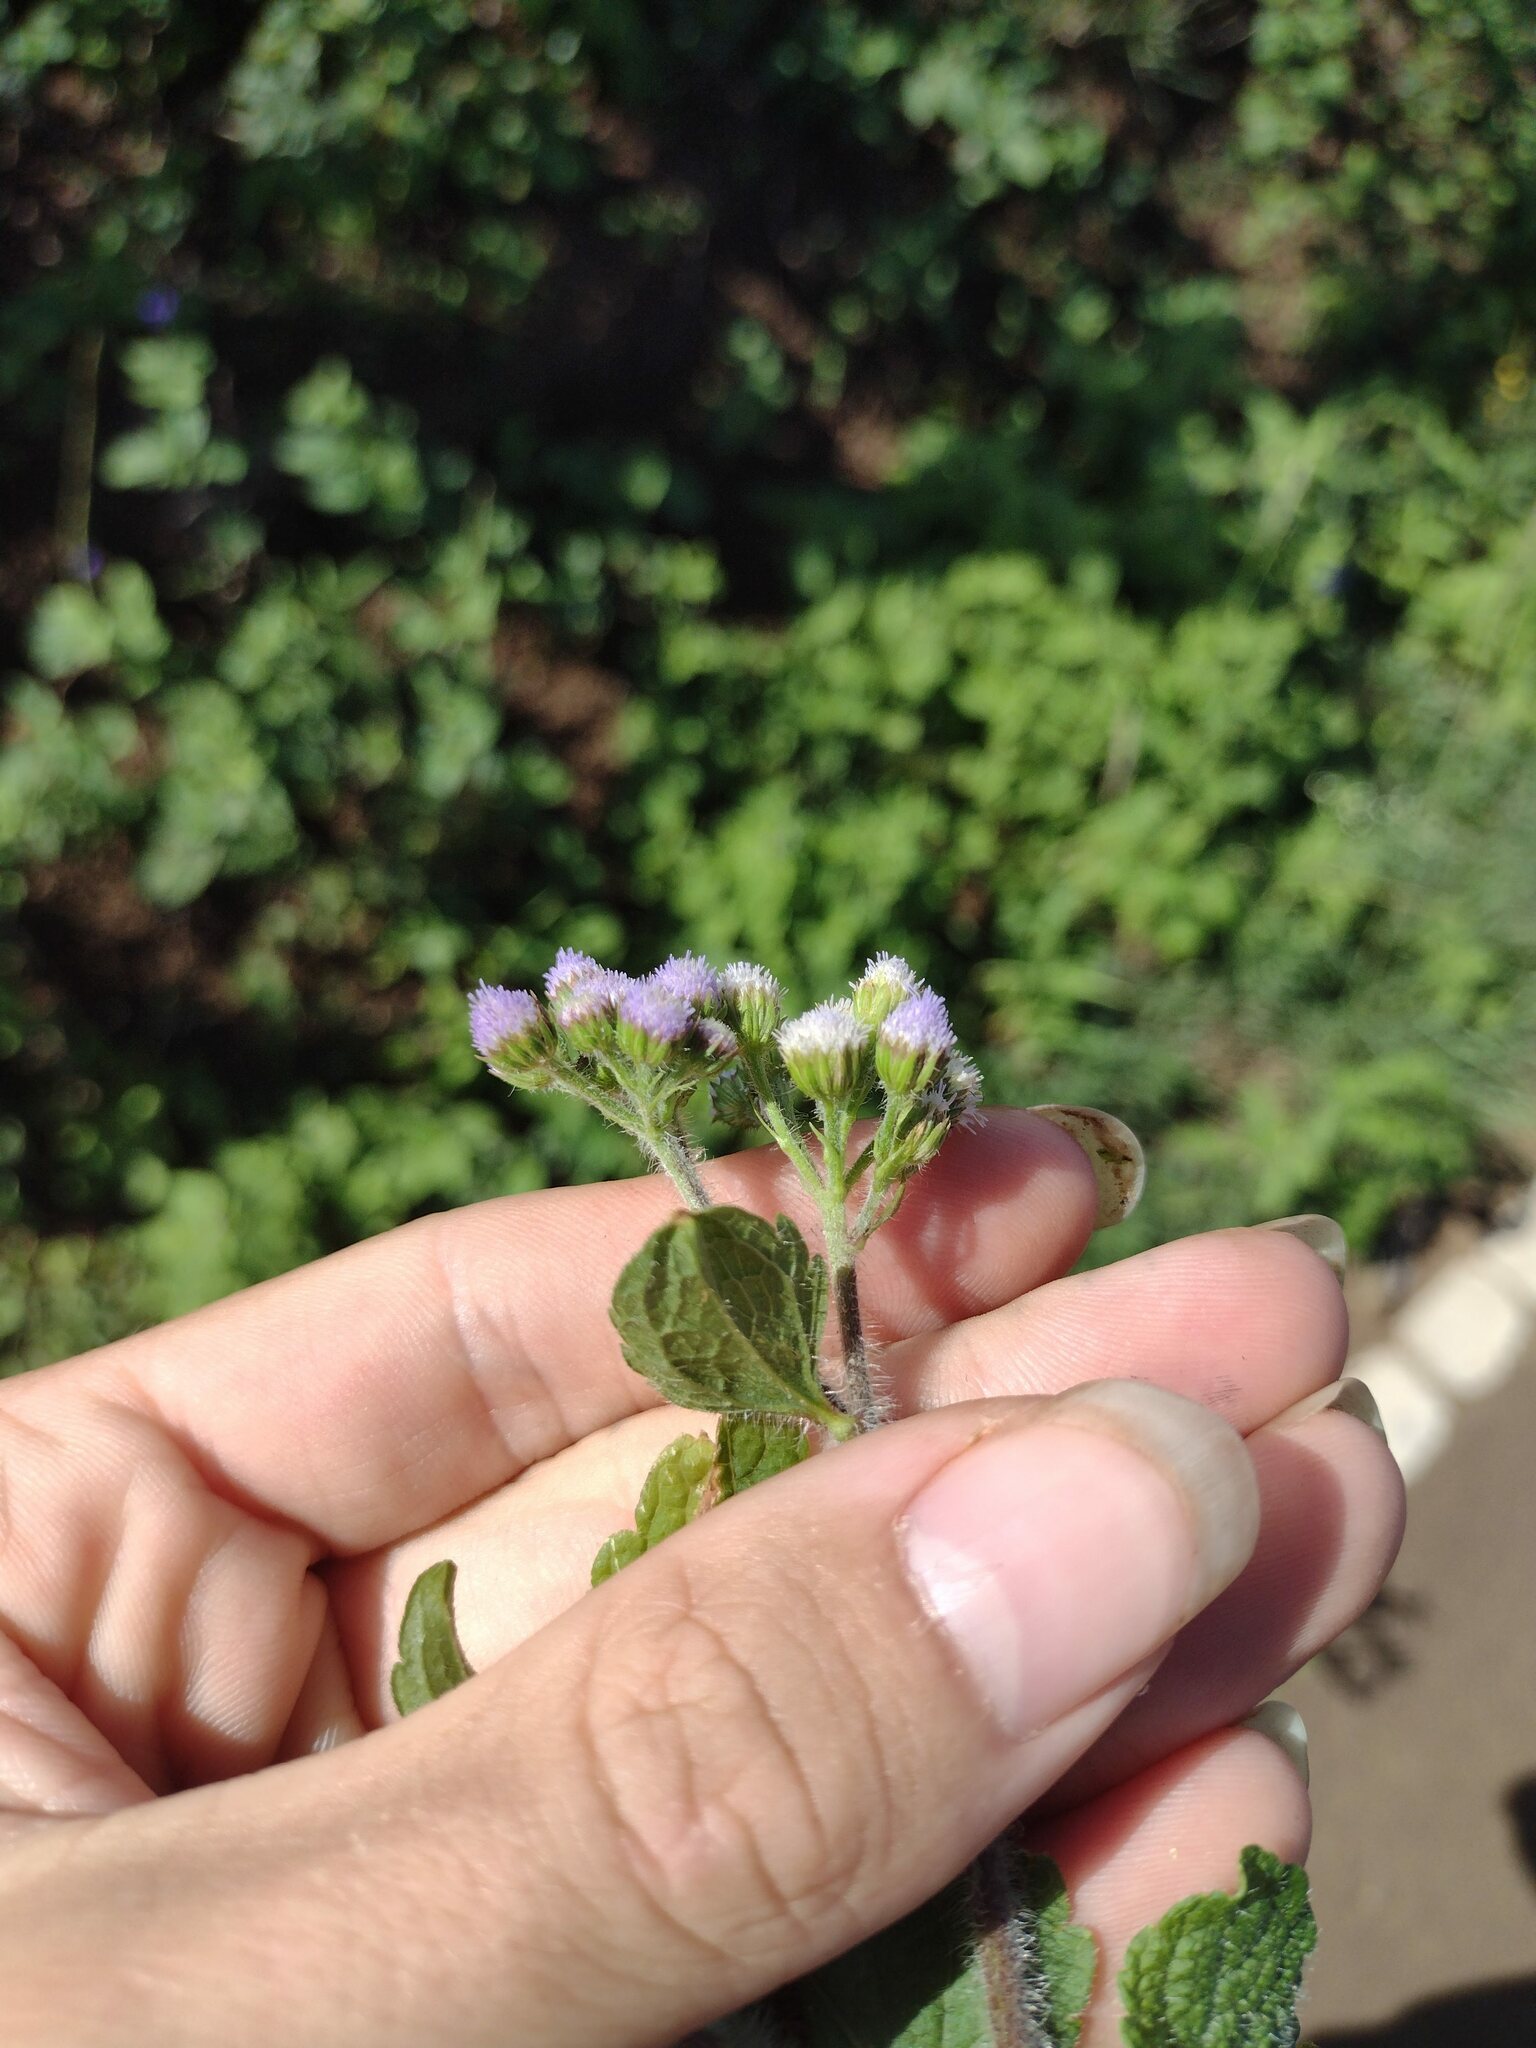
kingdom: Plantae
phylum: Tracheophyta
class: Magnoliopsida
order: Asterales
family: Asteraceae
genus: Ageratum
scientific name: Ageratum conyzoides
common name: Tropical whiteweed
